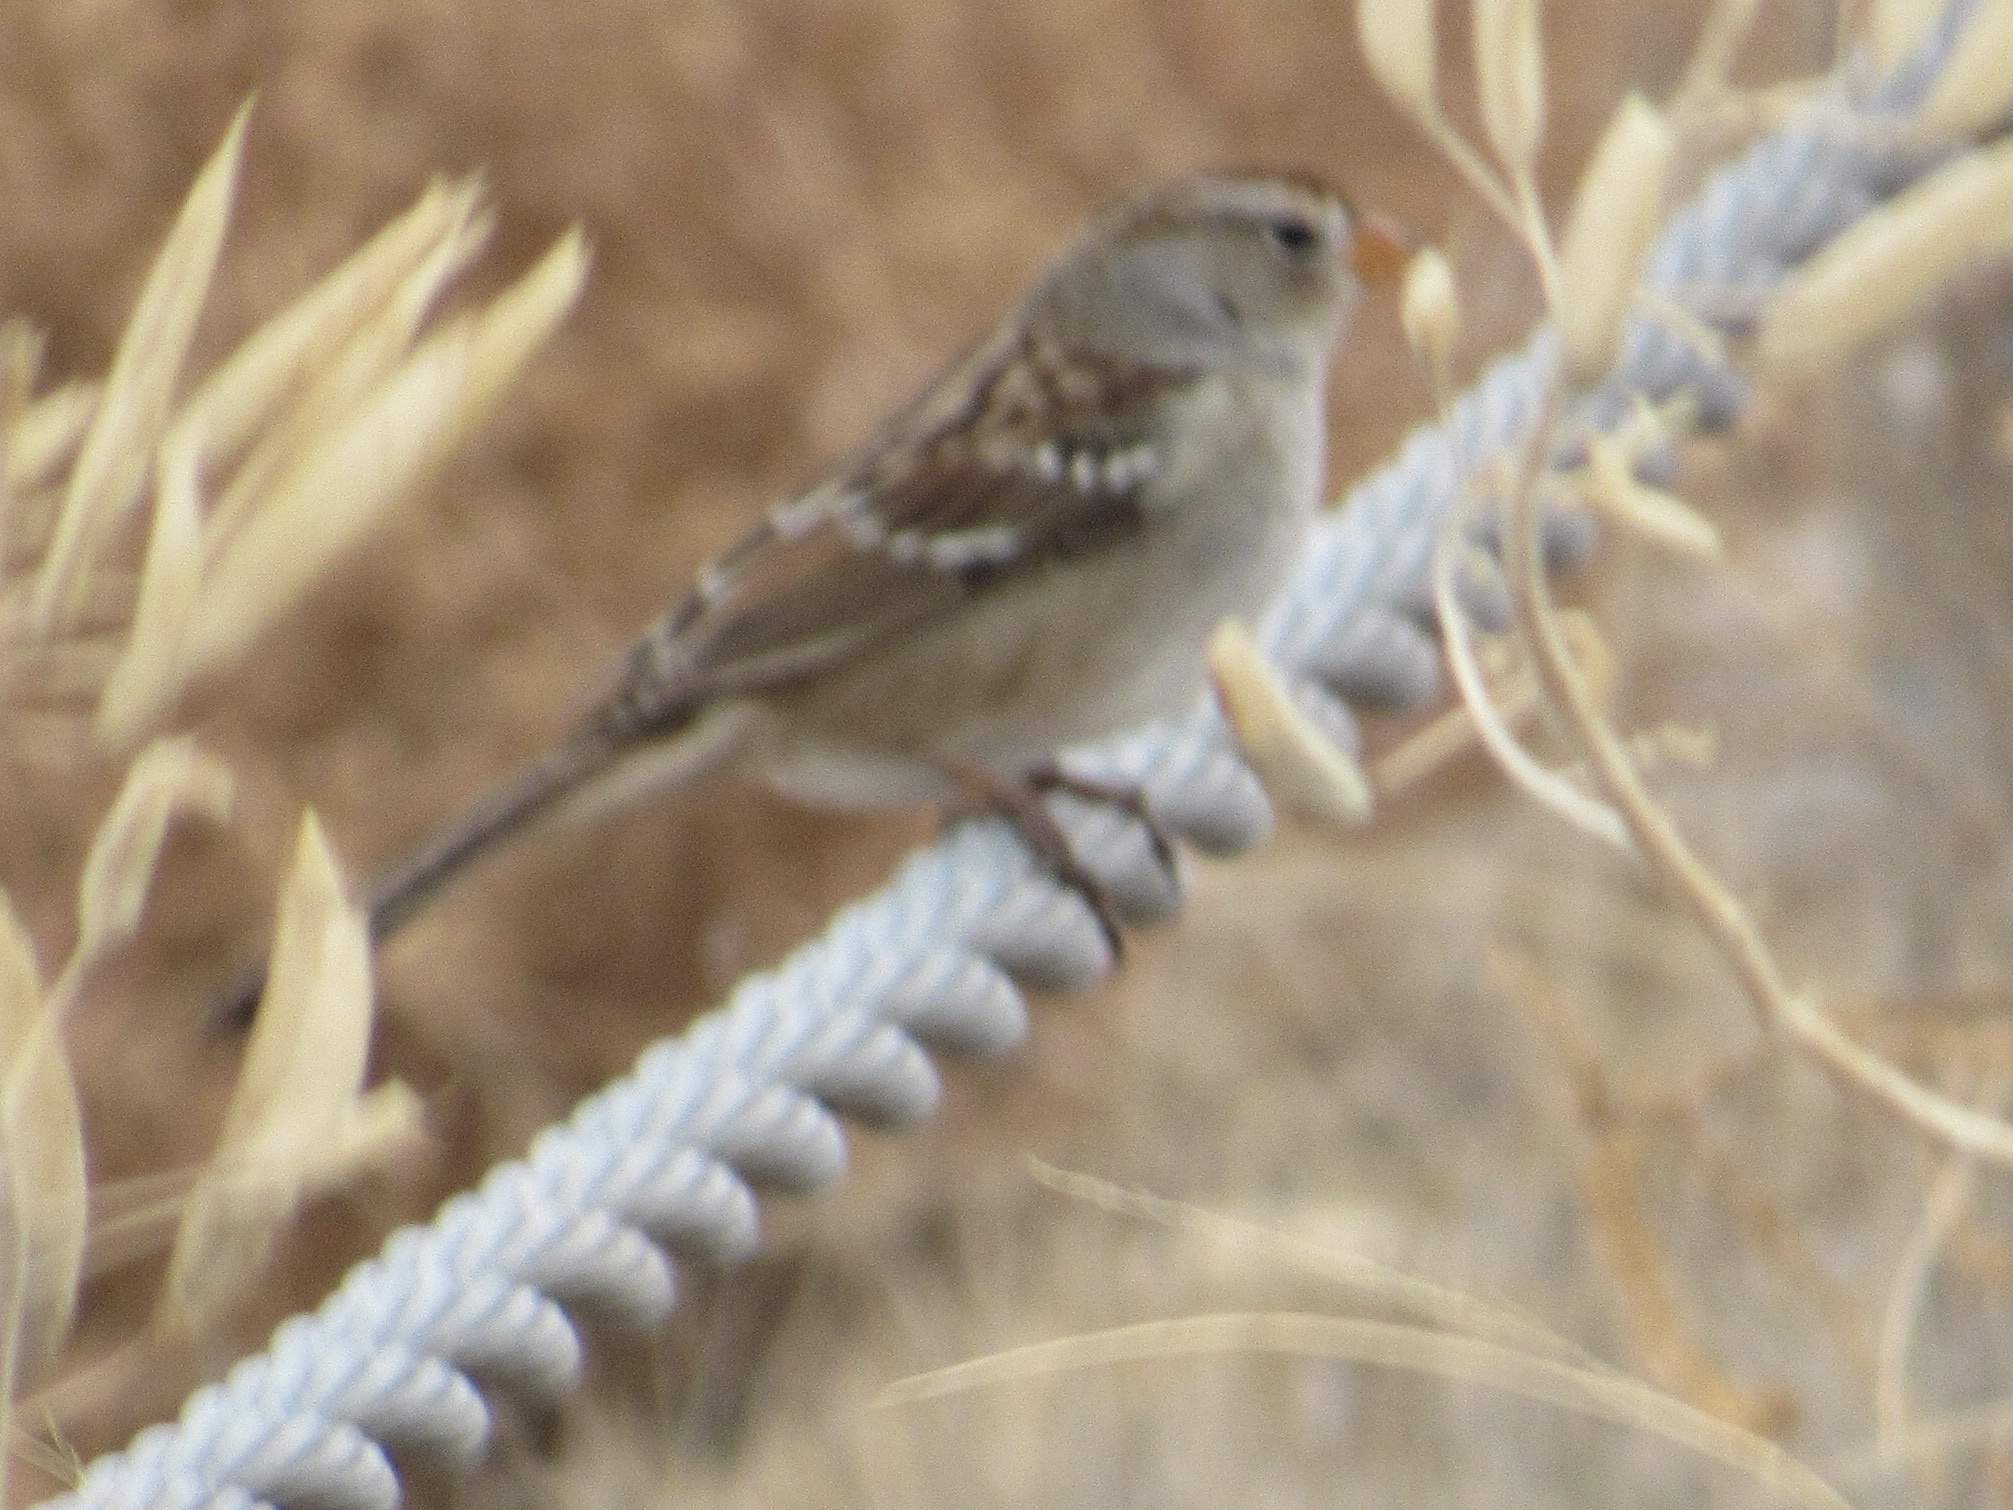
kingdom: Animalia
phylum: Chordata
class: Aves
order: Passeriformes
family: Passerellidae
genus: Zonotrichia
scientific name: Zonotrichia leucophrys
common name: White-crowned sparrow
